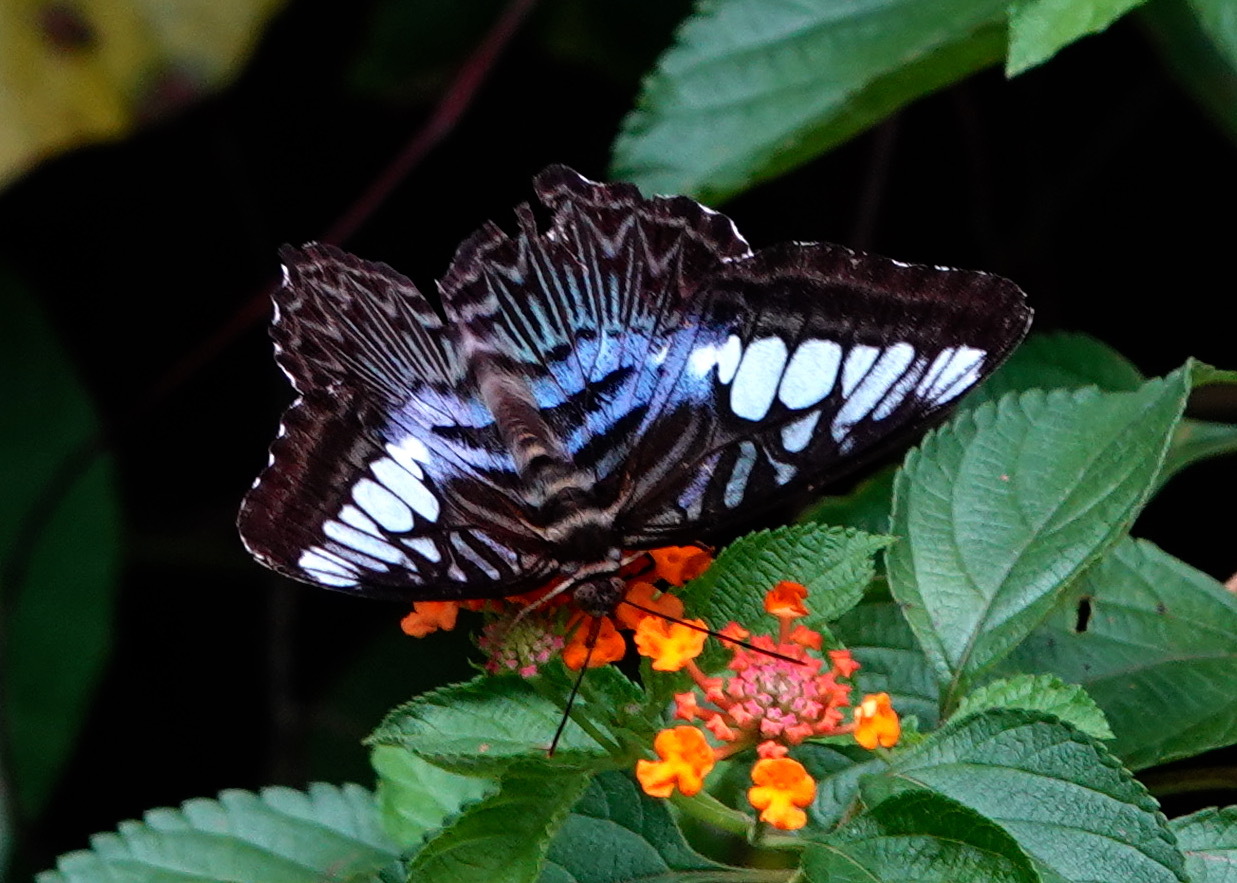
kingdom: Animalia
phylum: Arthropoda
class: Insecta
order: Lepidoptera
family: Nymphalidae
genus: Kallima
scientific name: Kallima sylvia
